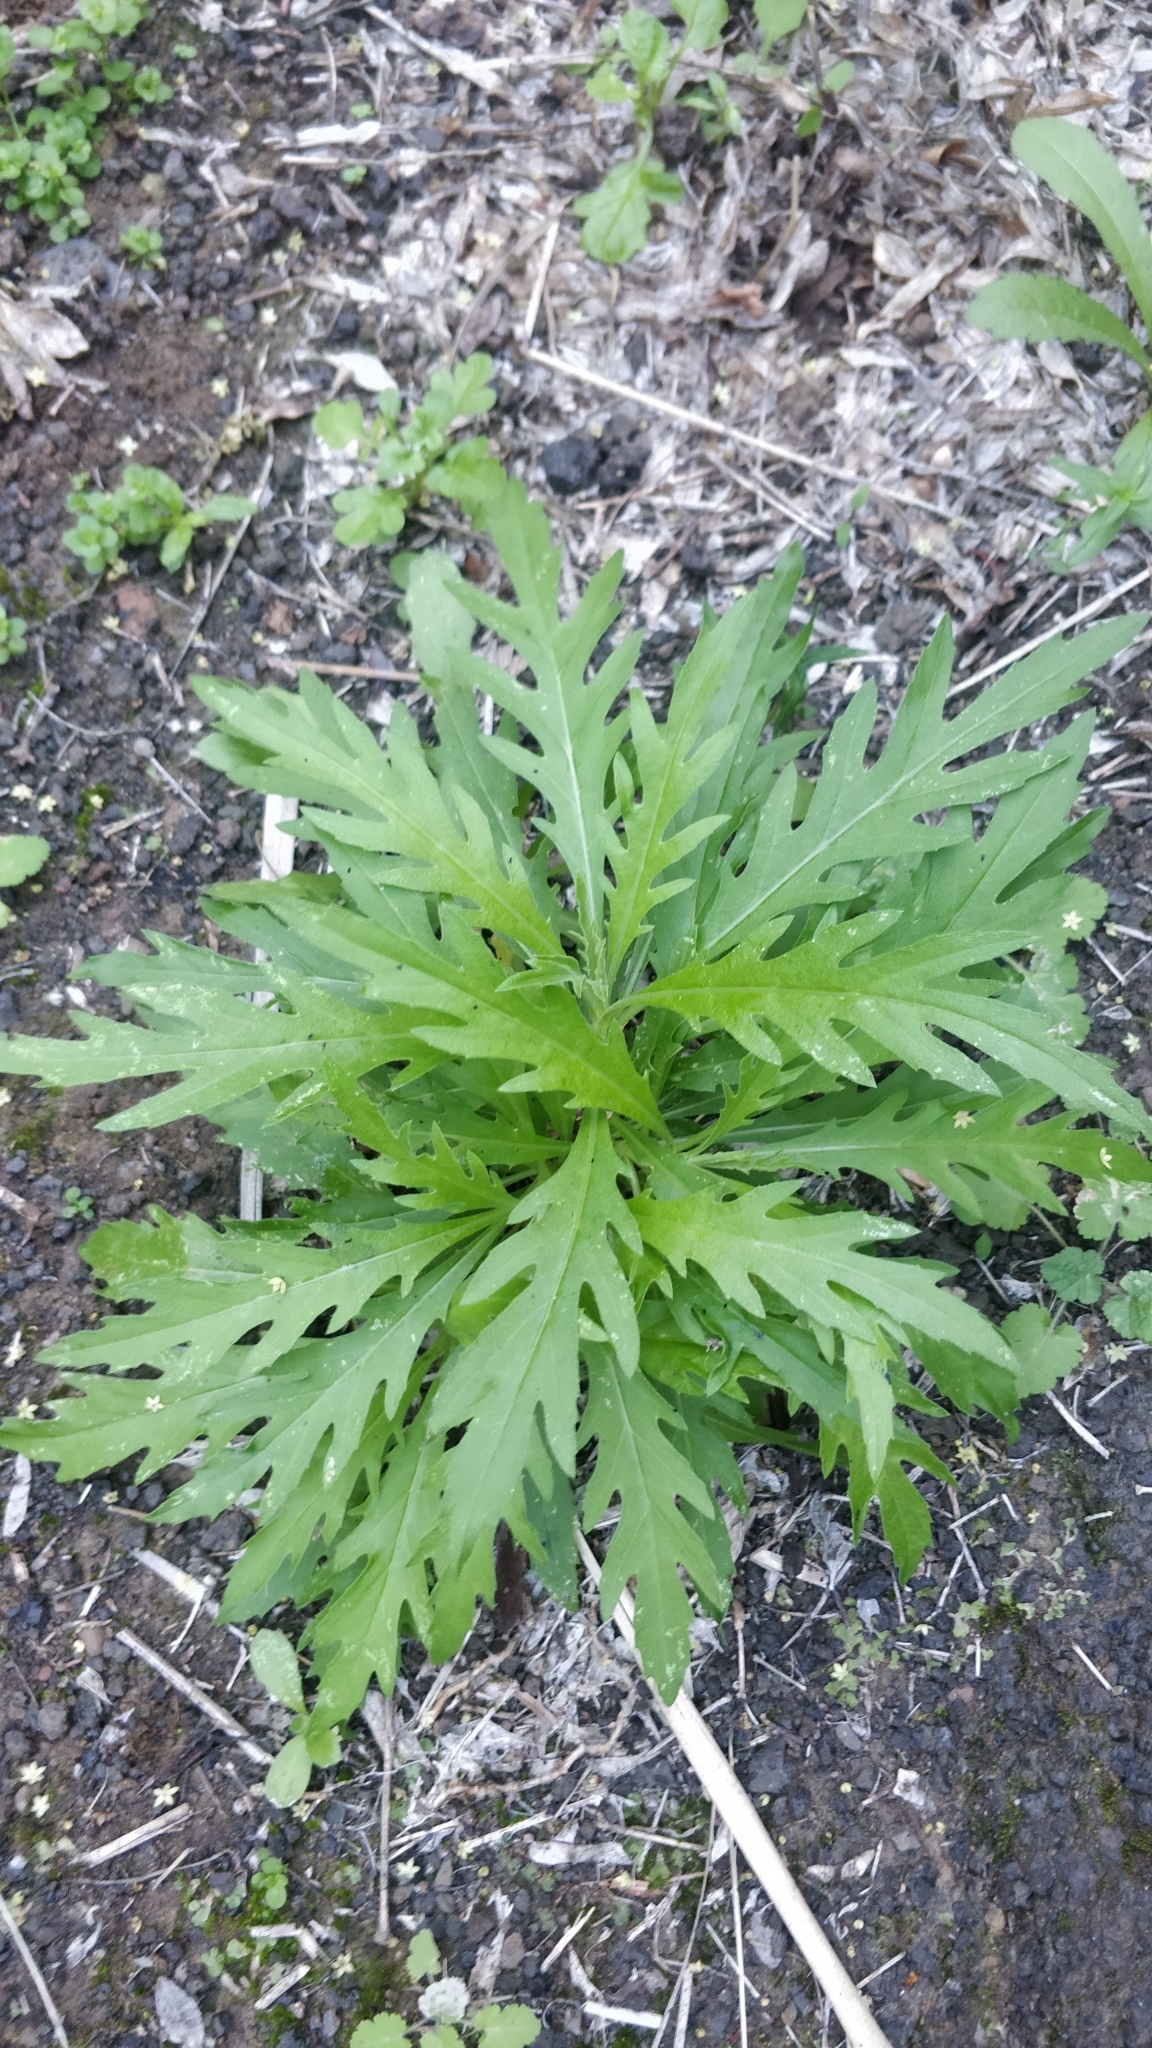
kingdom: Plantae
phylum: Tracheophyta
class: Magnoliopsida
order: Asterales
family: Asteraceae
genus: Cheirolophus
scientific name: Cheirolophus canariensis
